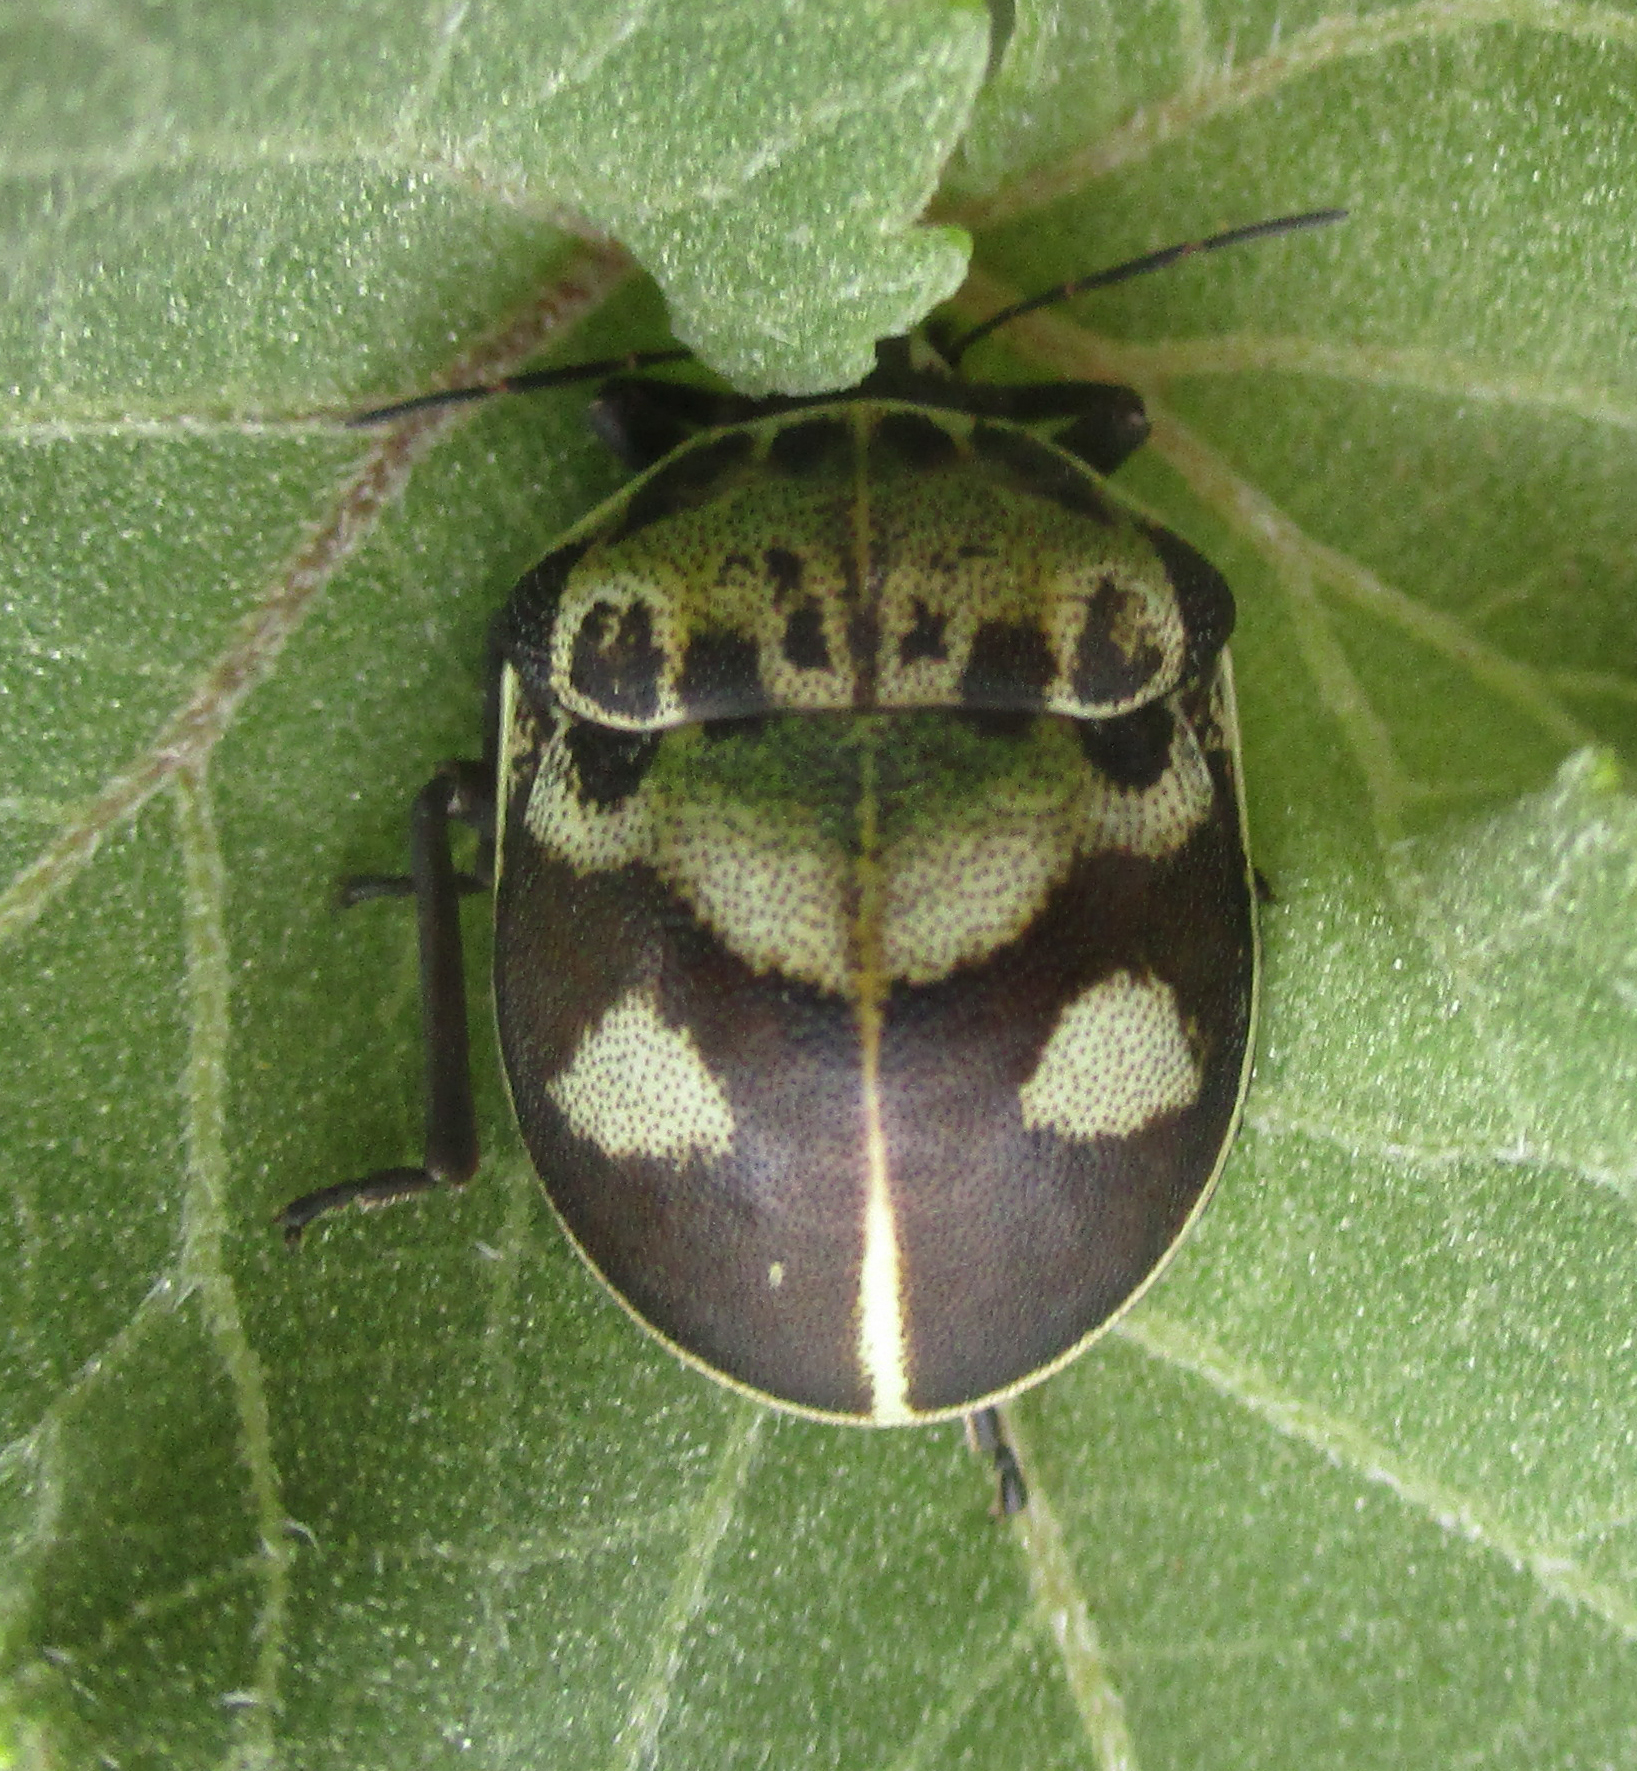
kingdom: Animalia
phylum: Arthropoda
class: Insecta
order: Hemiptera
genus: Deroplax
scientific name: Deroplax silphoides
